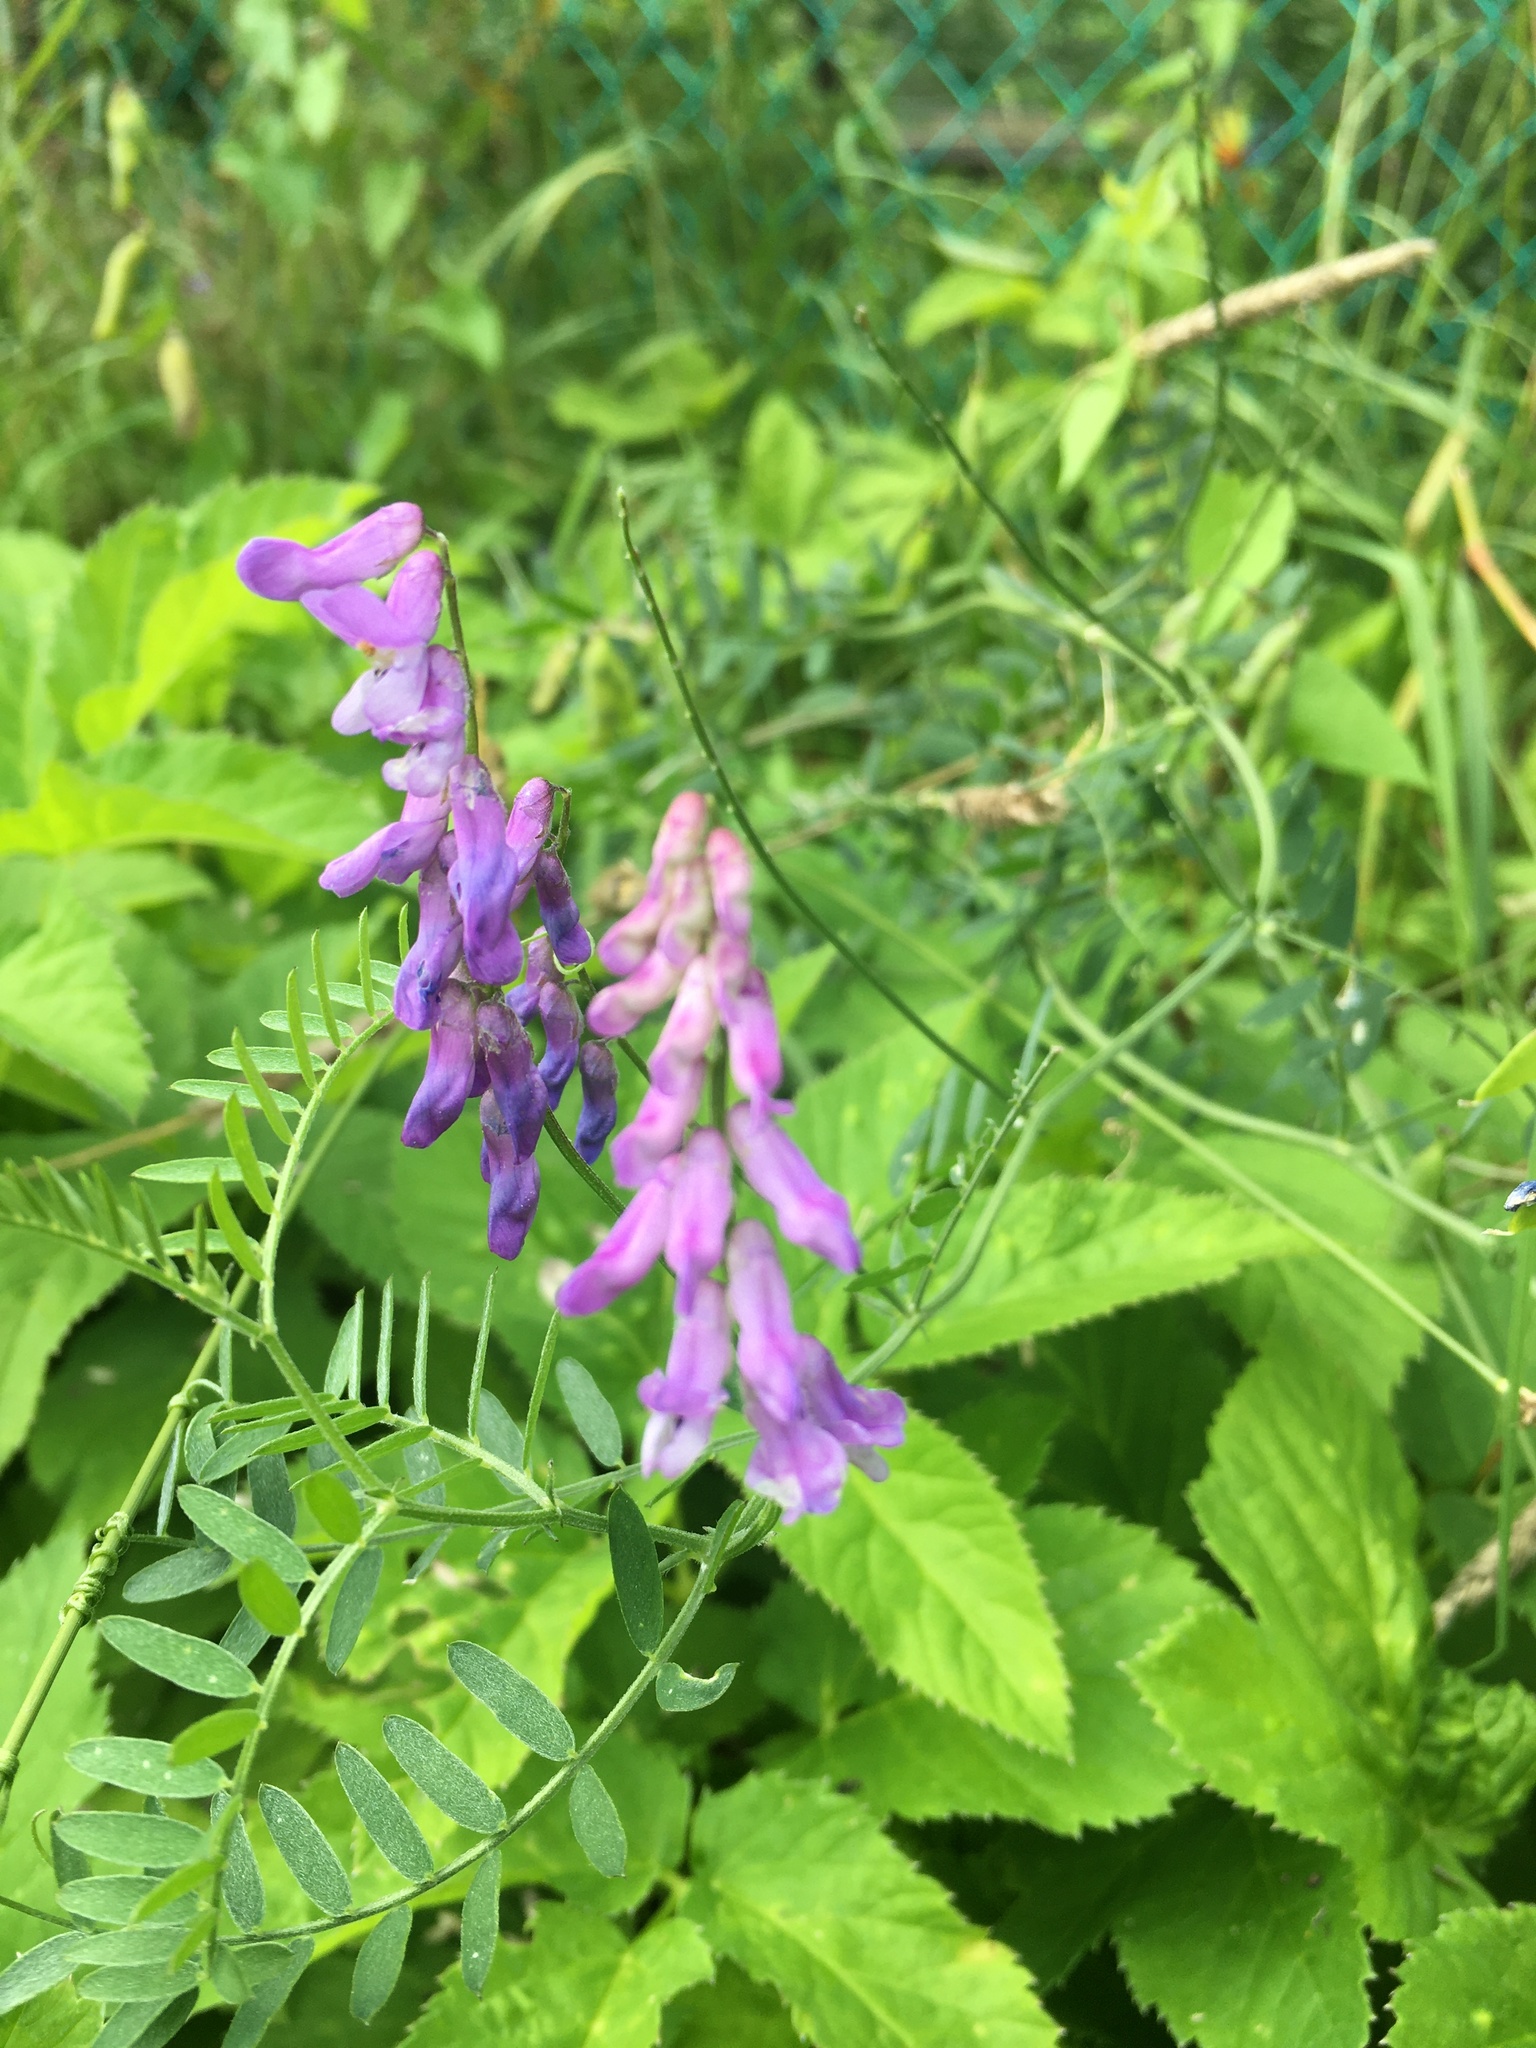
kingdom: Plantae
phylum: Tracheophyta
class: Magnoliopsida
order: Fabales
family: Fabaceae
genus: Vicia
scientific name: Vicia cracca
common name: Bird vetch
